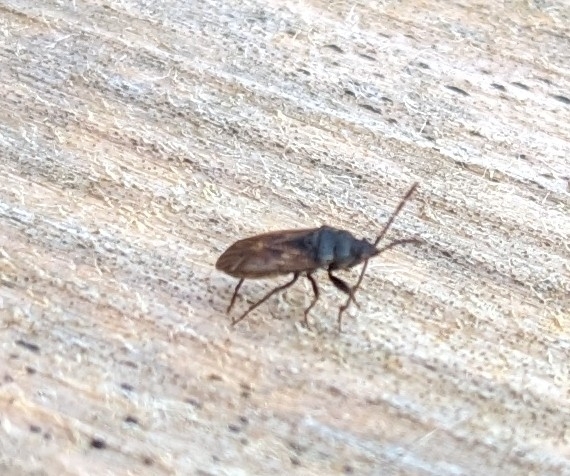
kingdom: Animalia
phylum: Arthropoda
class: Insecta
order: Hemiptera
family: Rhyparochromidae
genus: Drymus
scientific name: Drymus sylvaticus
